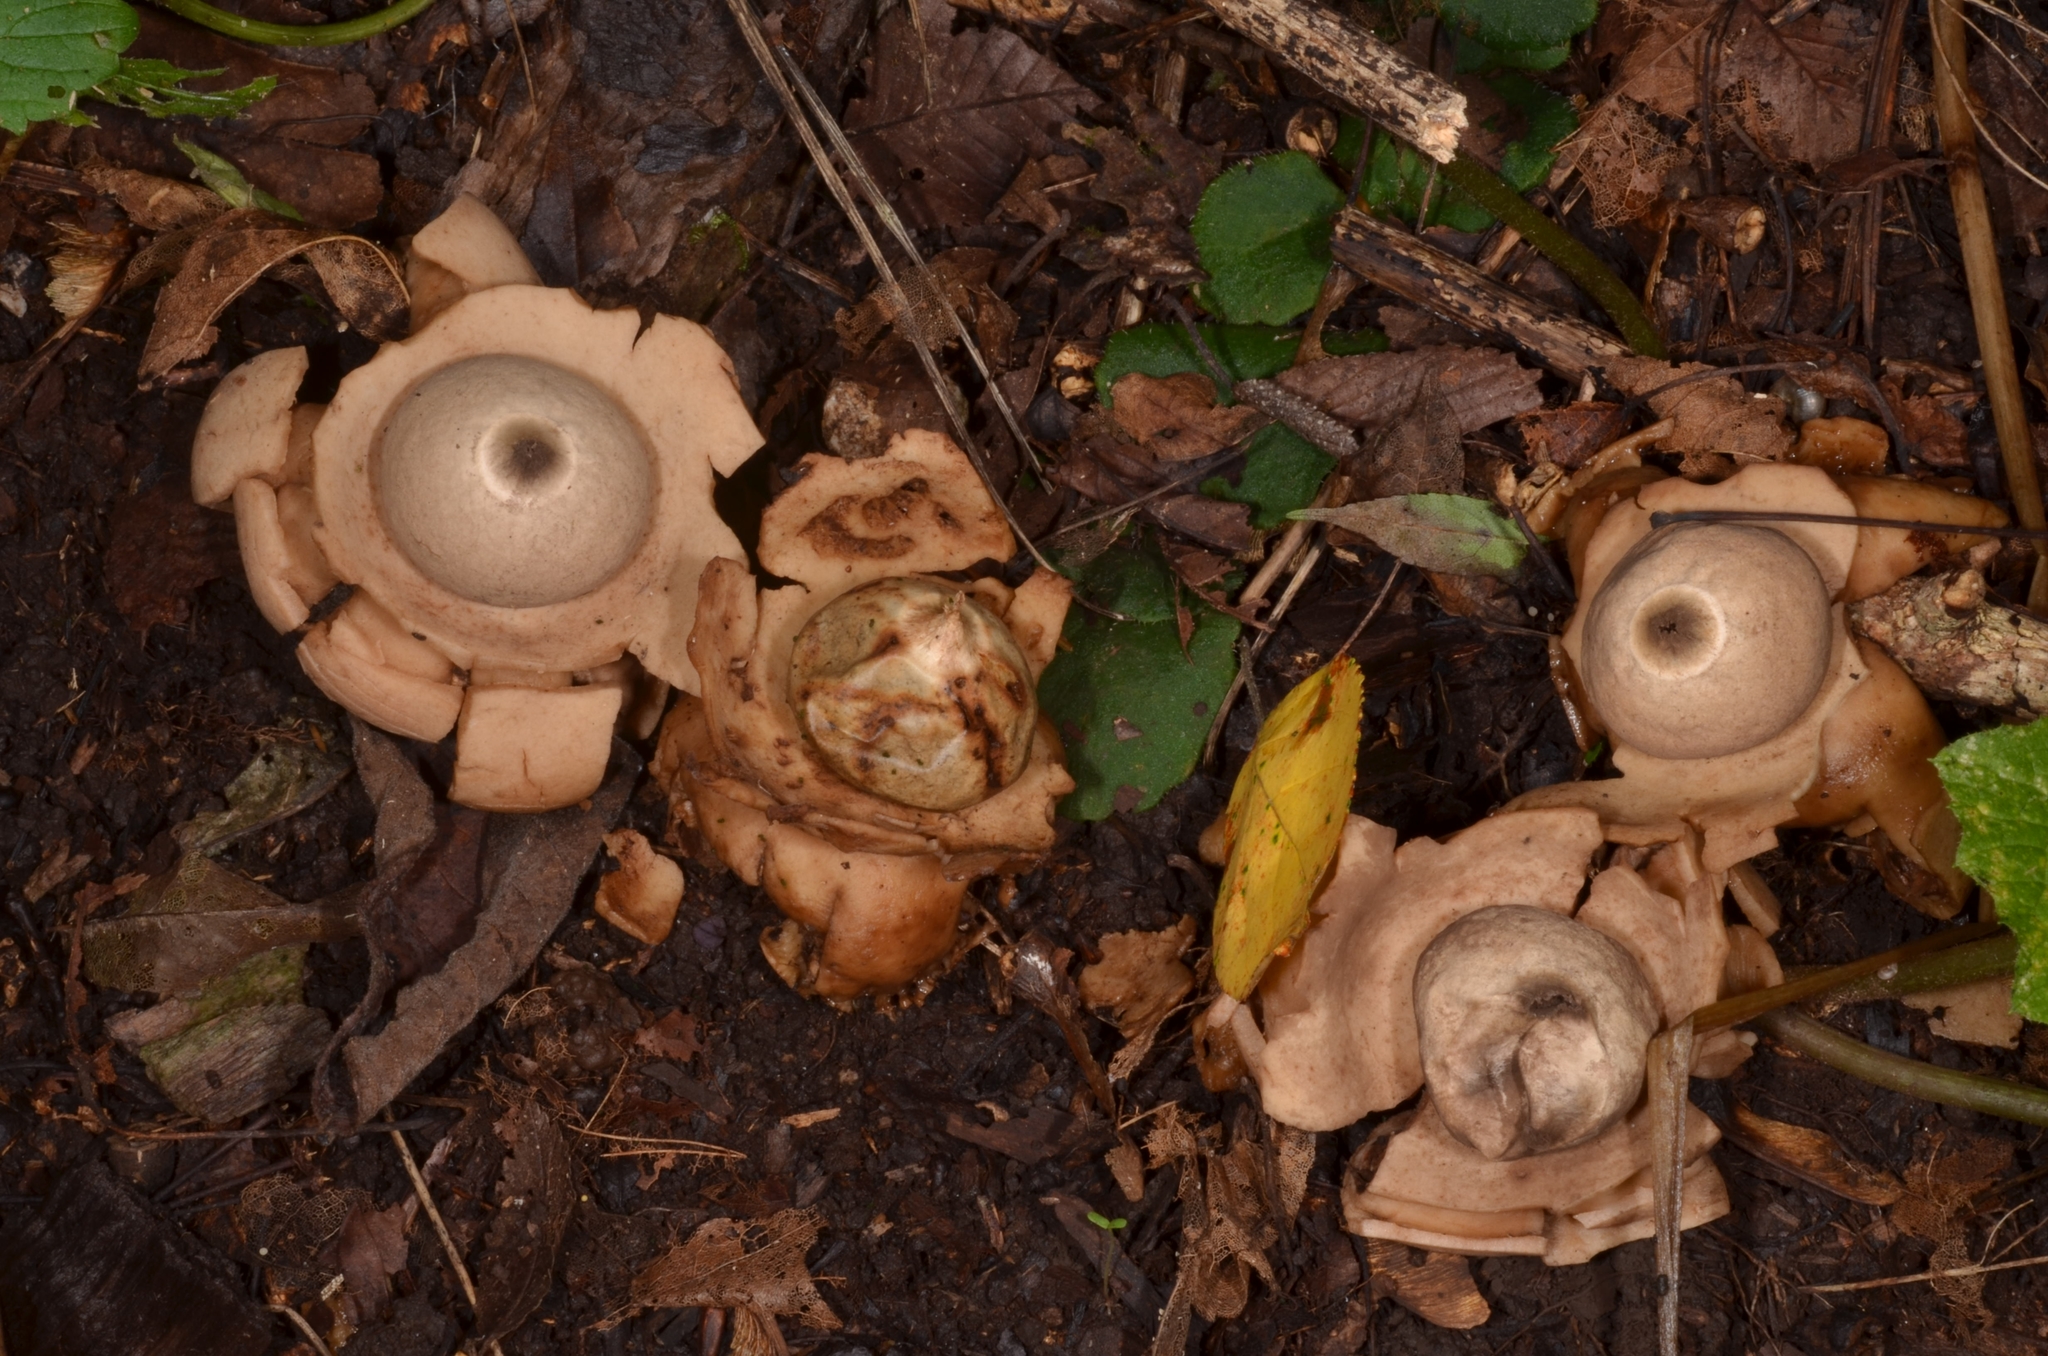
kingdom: Fungi
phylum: Basidiomycota
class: Agaricomycetes
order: Geastrales
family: Geastraceae
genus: Geastrum
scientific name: Geastrum triplex
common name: Collared earthstar
